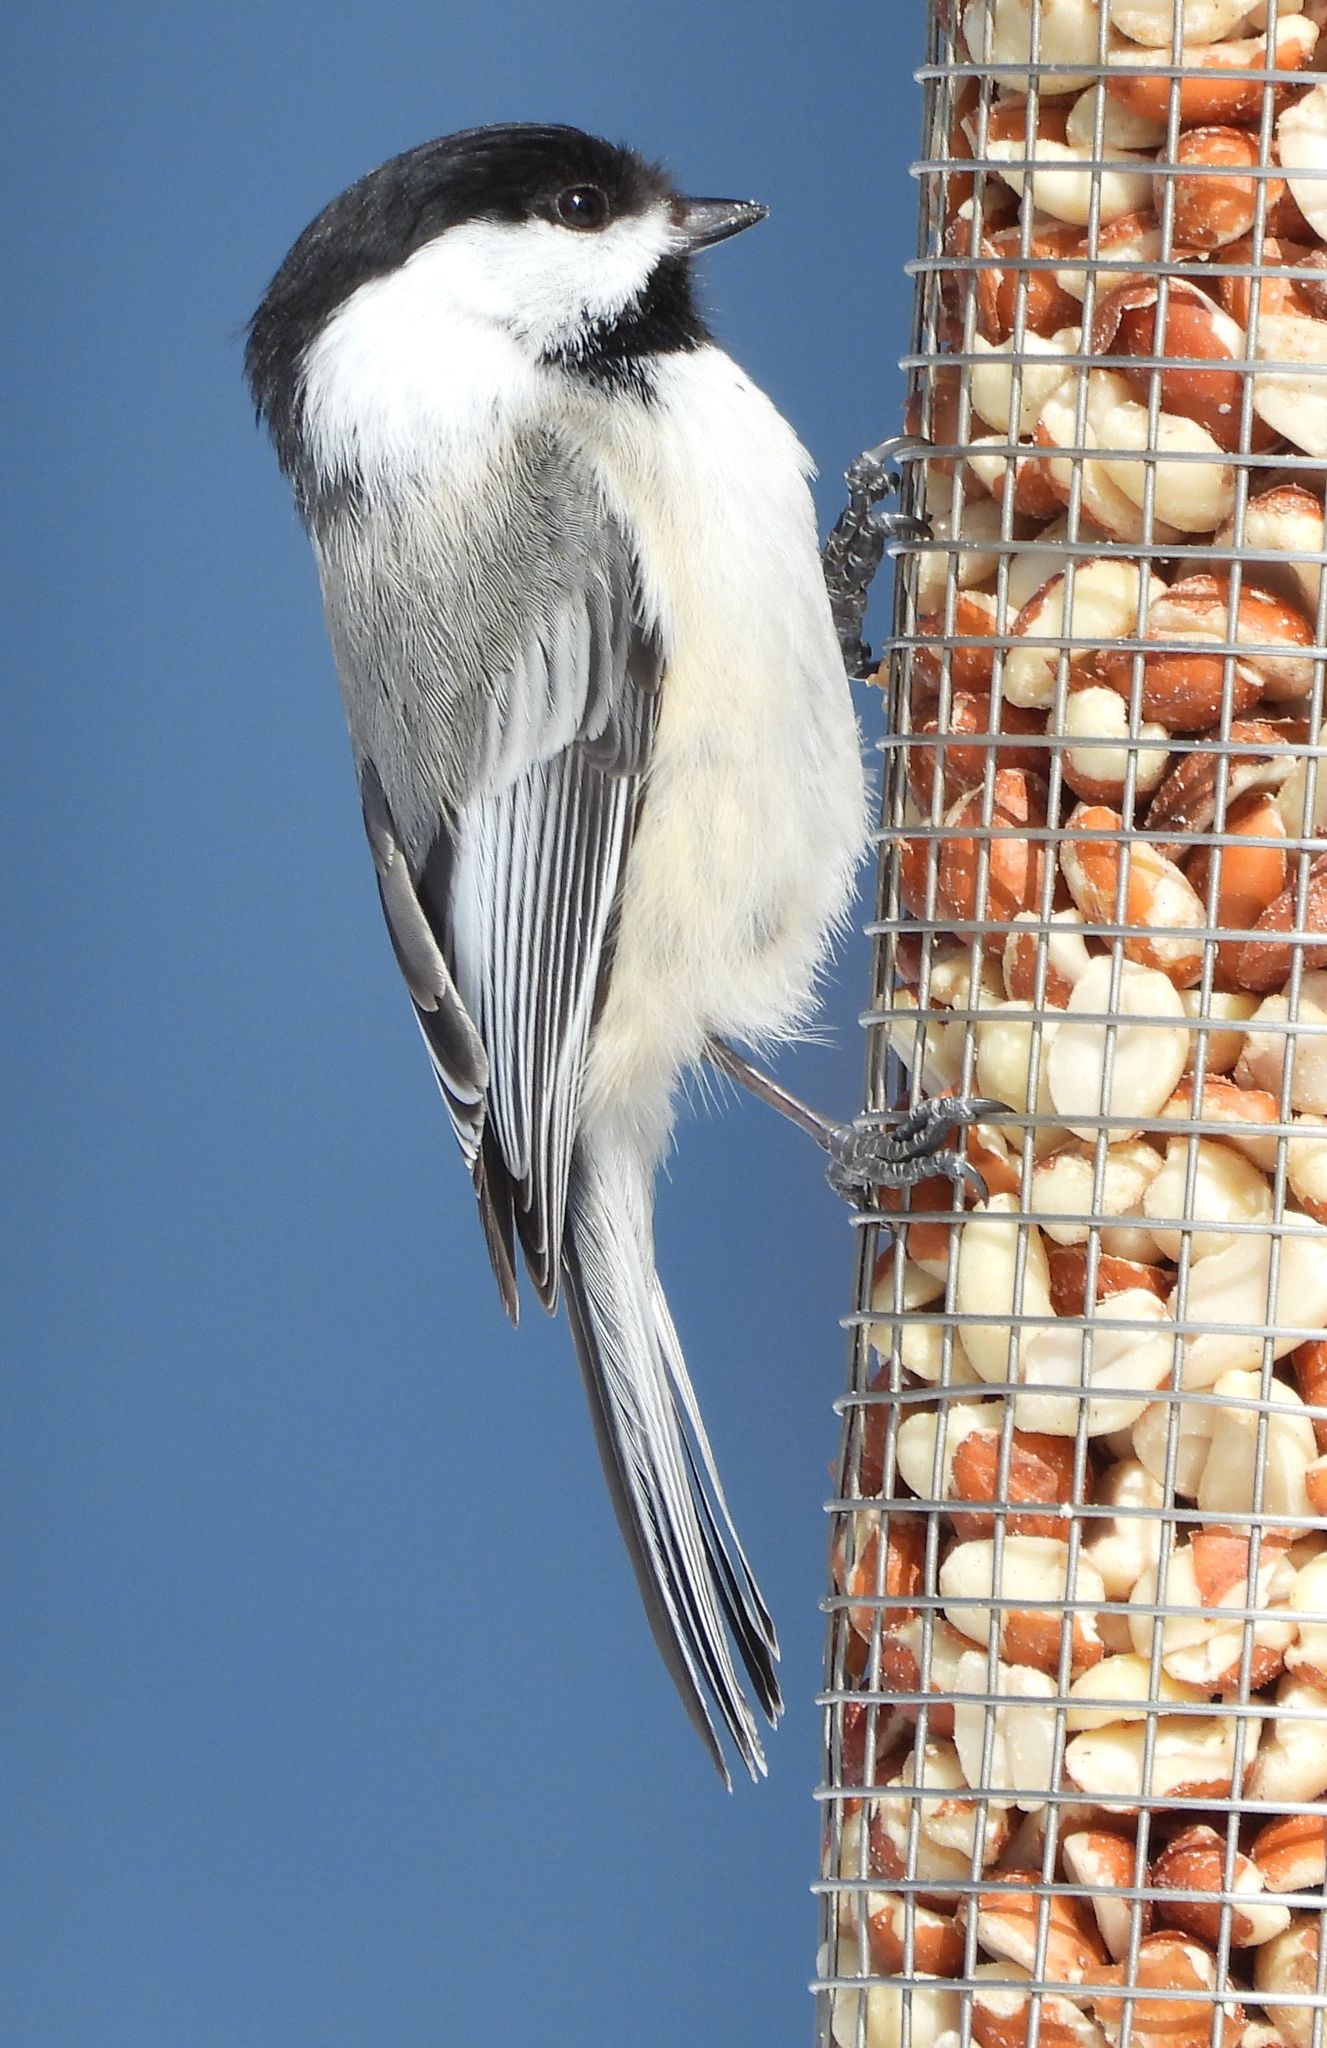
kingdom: Animalia
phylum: Chordata
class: Aves
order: Passeriformes
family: Paridae
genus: Poecile
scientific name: Poecile atricapillus
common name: Black-capped chickadee
